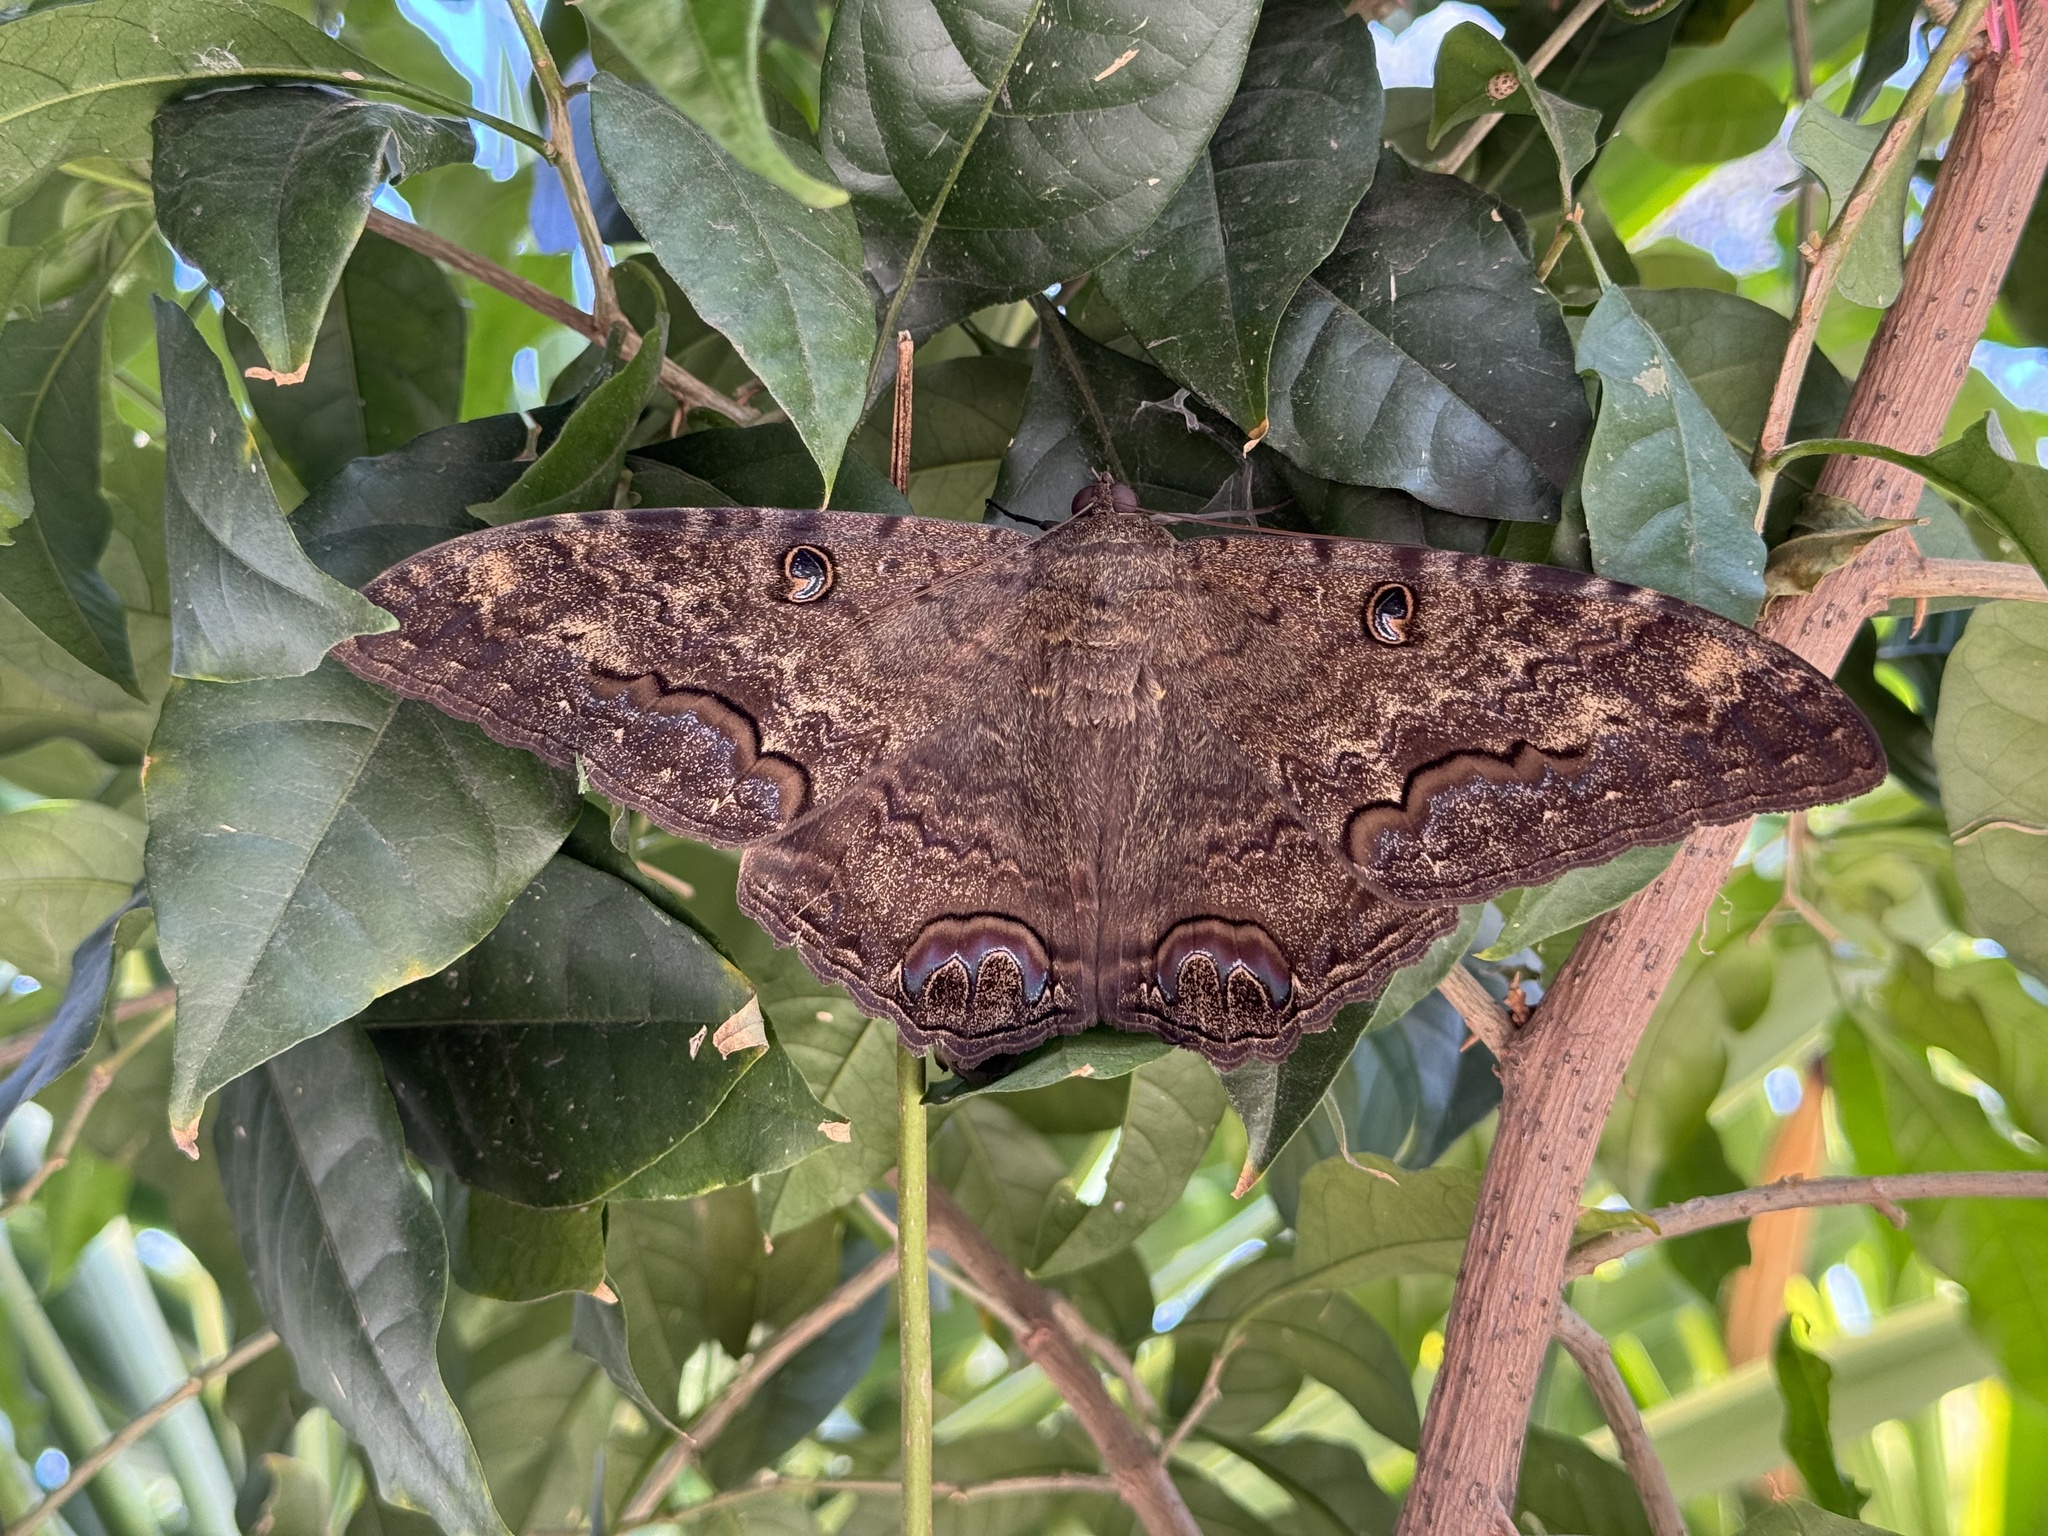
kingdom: Animalia
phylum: Arthropoda
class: Insecta
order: Lepidoptera
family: Erebidae
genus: Ascalapha
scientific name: Ascalapha odorata
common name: Black witch
